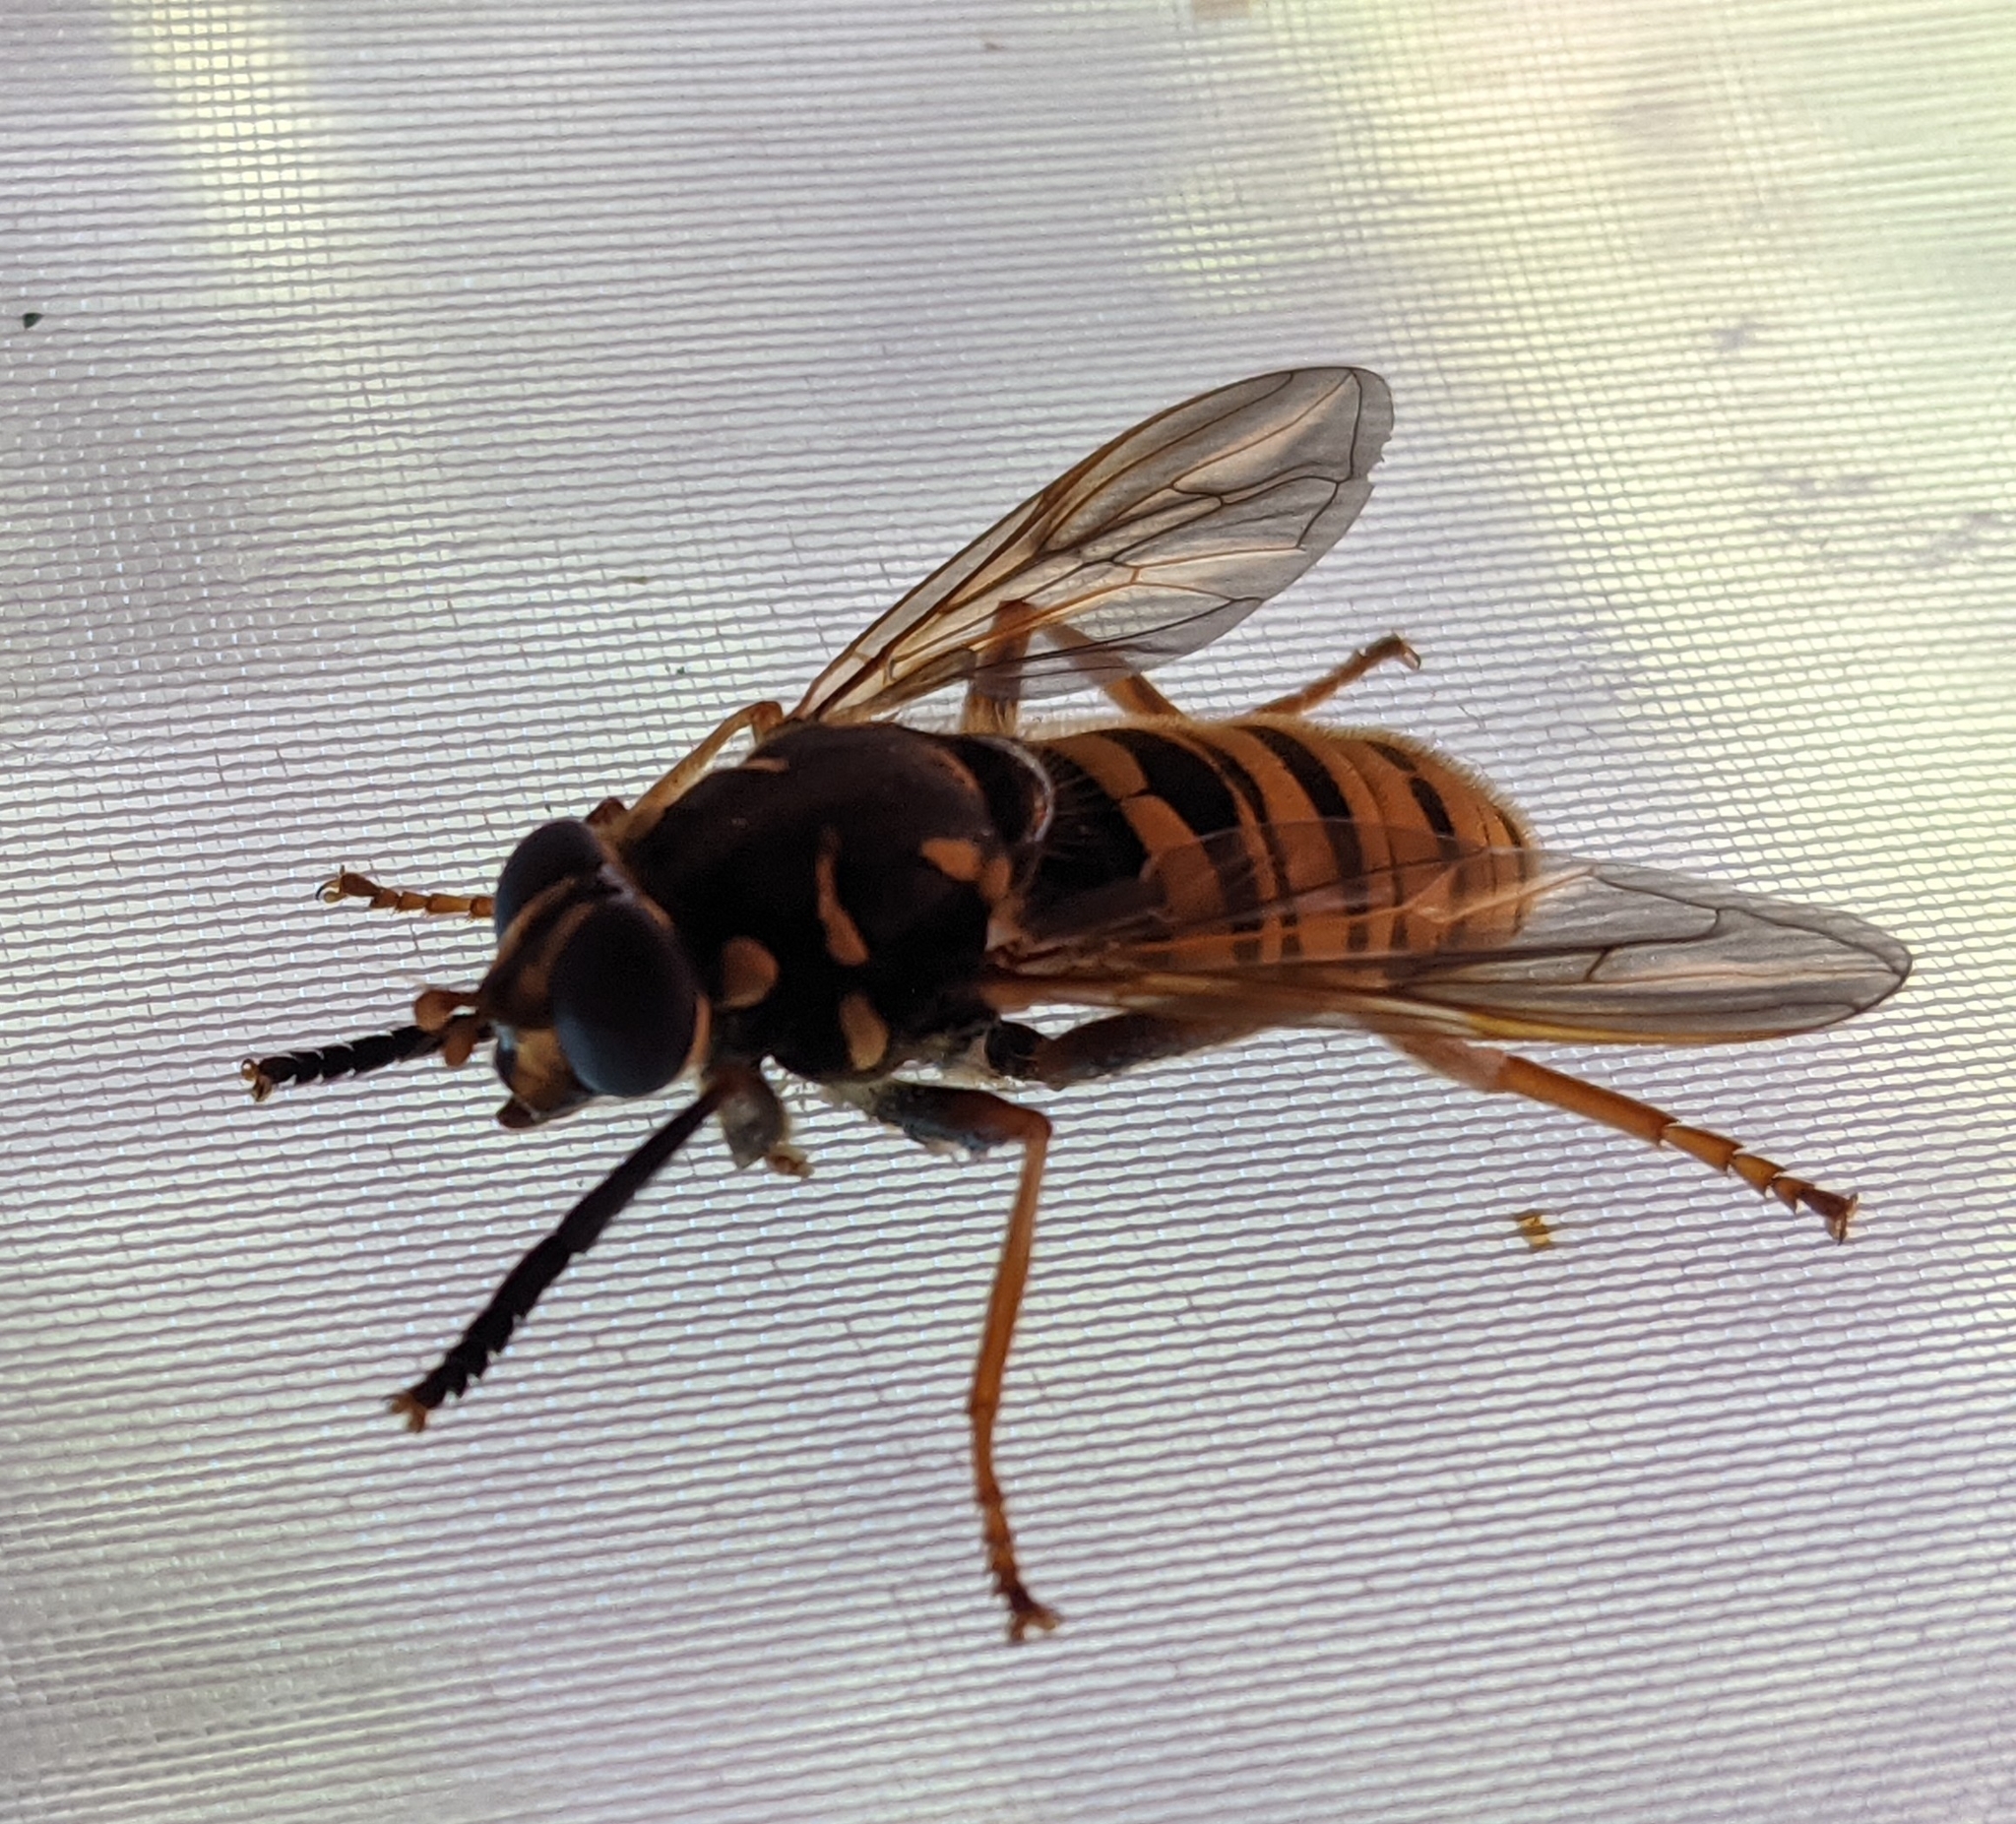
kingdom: Animalia
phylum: Arthropoda
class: Insecta
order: Diptera
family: Syrphidae
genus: Temnostoma
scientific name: Temnostoma vespiforme
